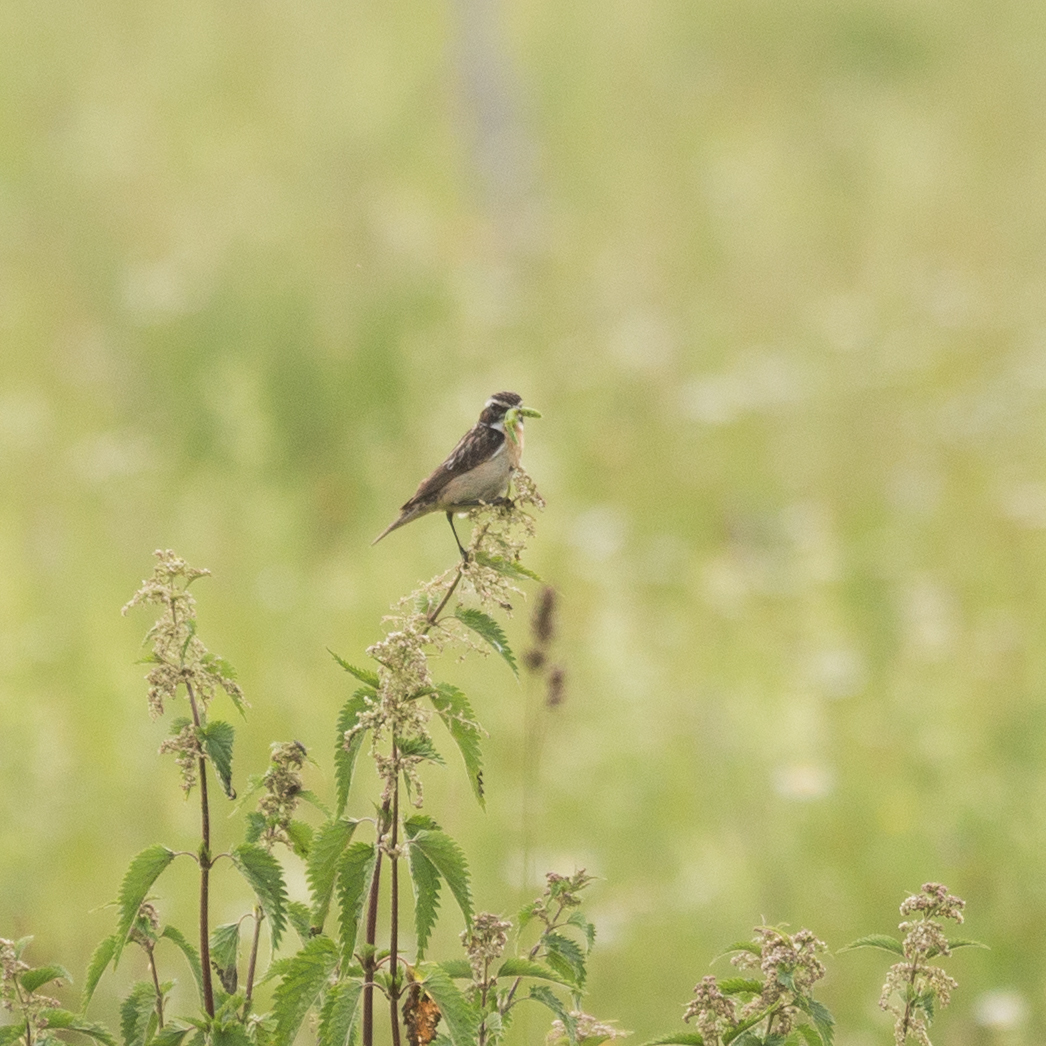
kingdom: Animalia
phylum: Chordata
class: Aves
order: Passeriformes
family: Muscicapidae
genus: Saxicola
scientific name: Saxicola rubetra
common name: Whinchat
